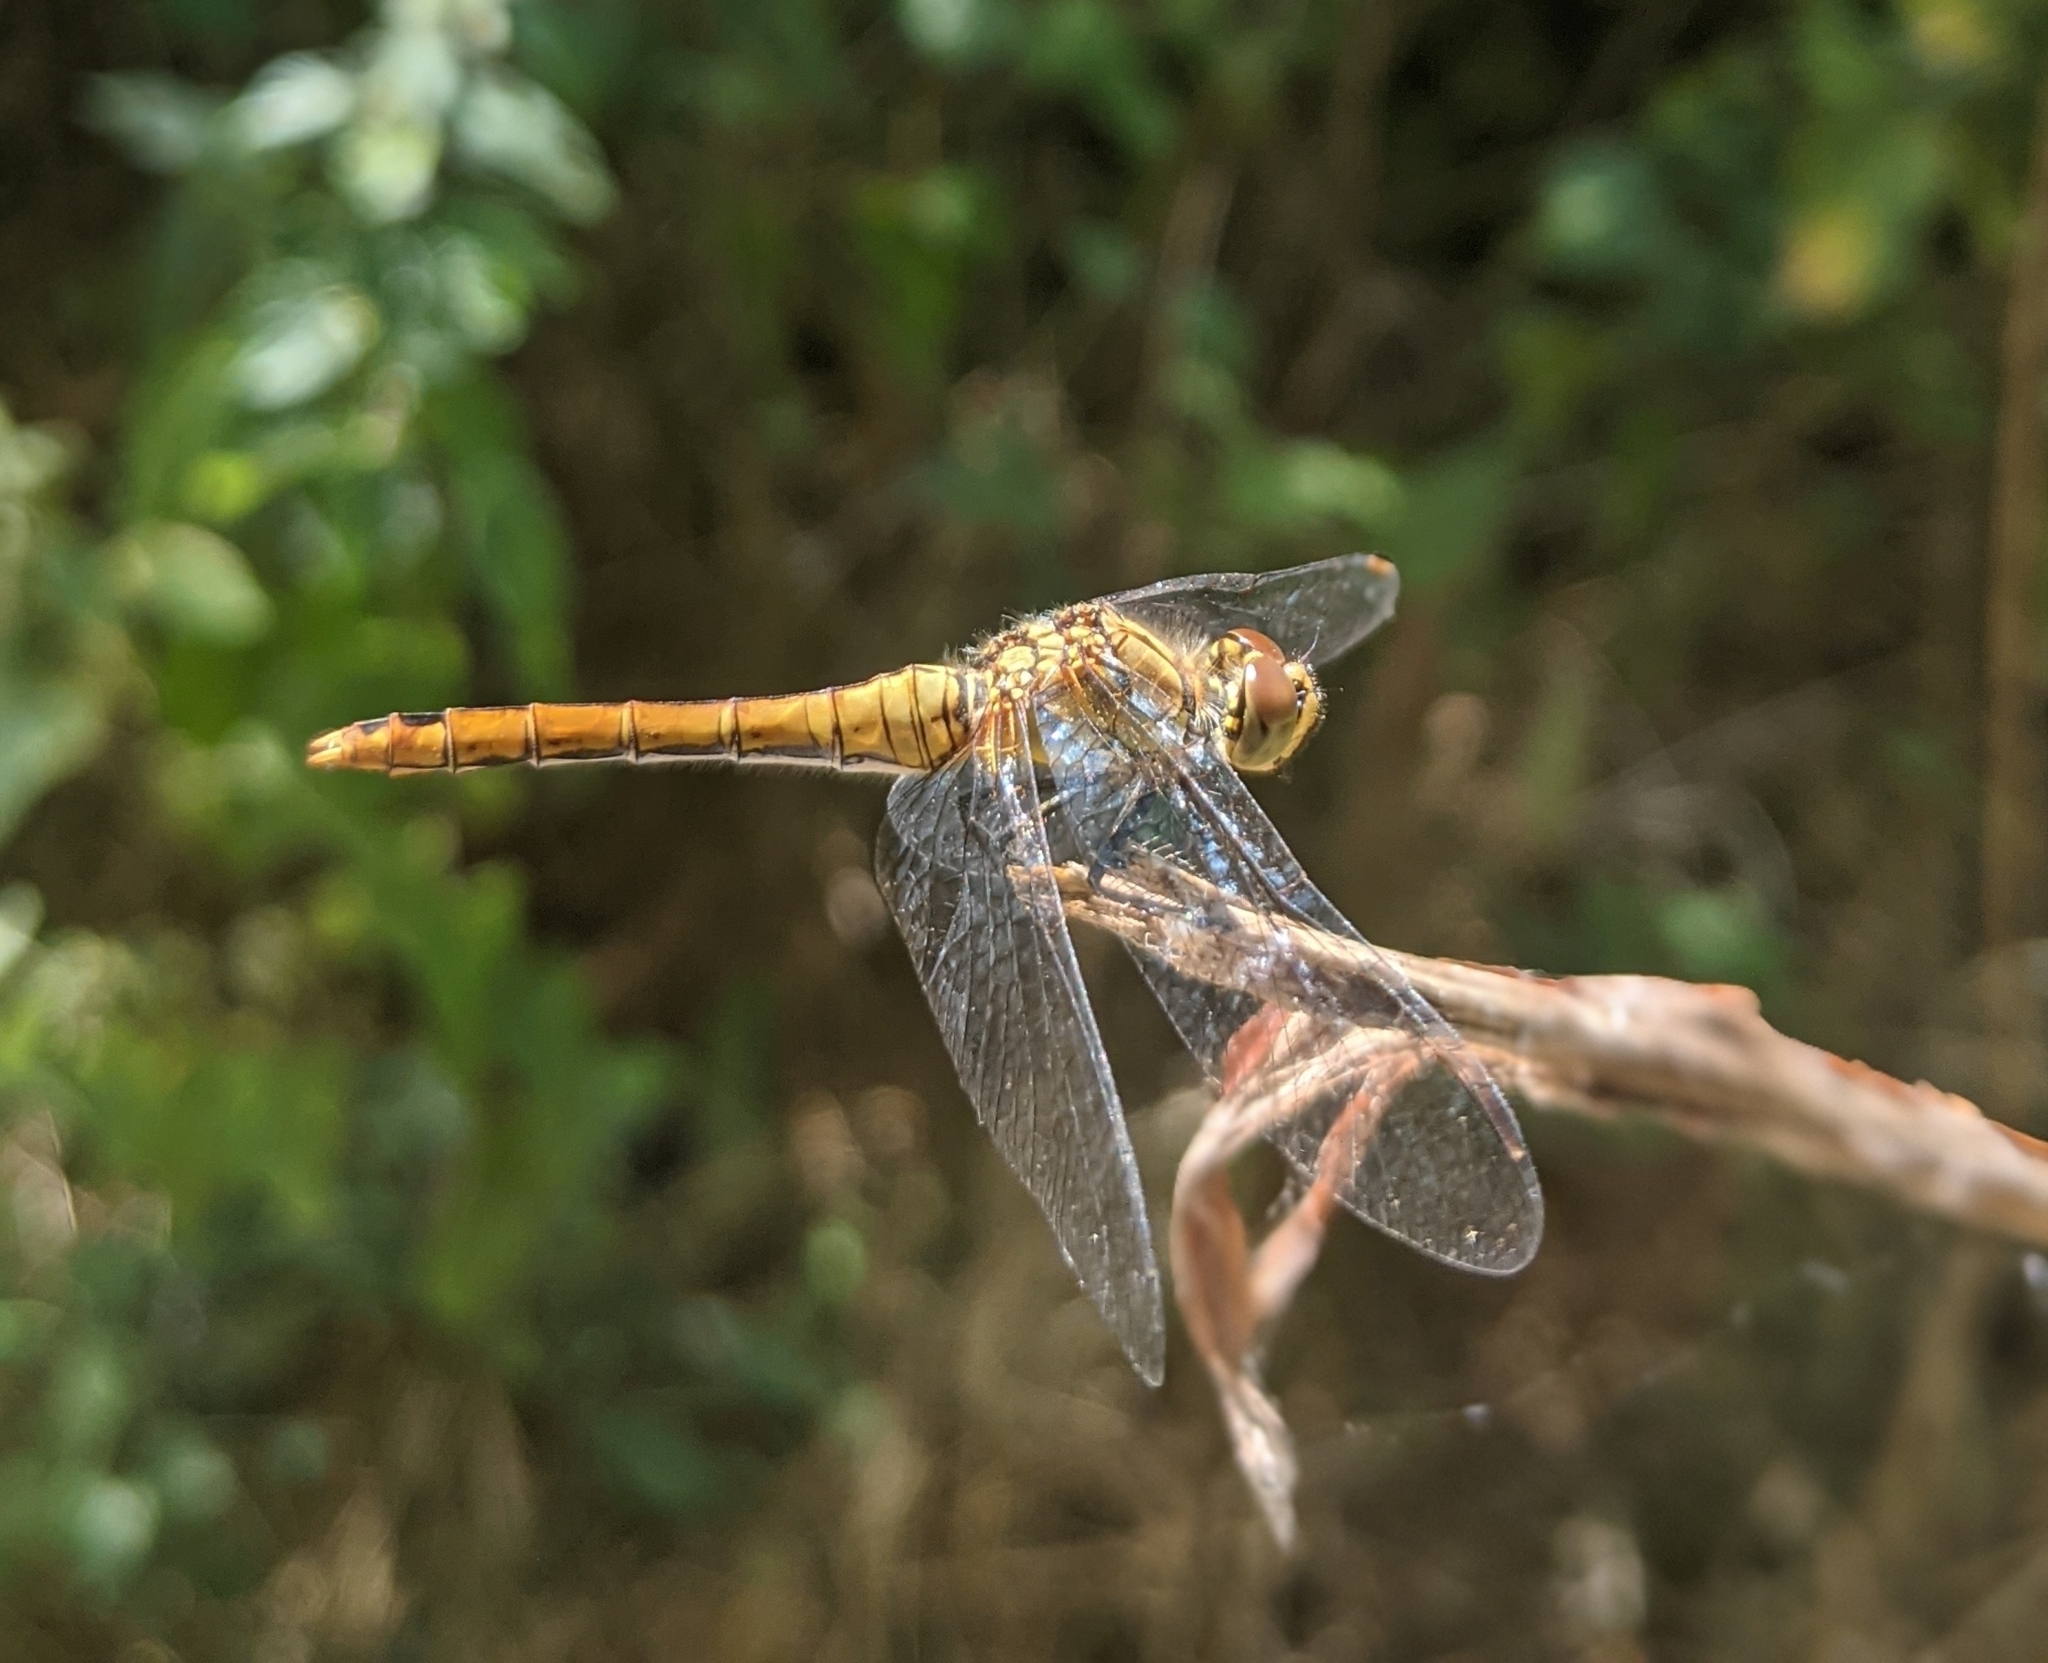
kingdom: Animalia
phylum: Arthropoda
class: Insecta
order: Odonata
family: Libellulidae
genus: Sympetrum
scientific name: Sympetrum sanguineum
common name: Ruddy darter
